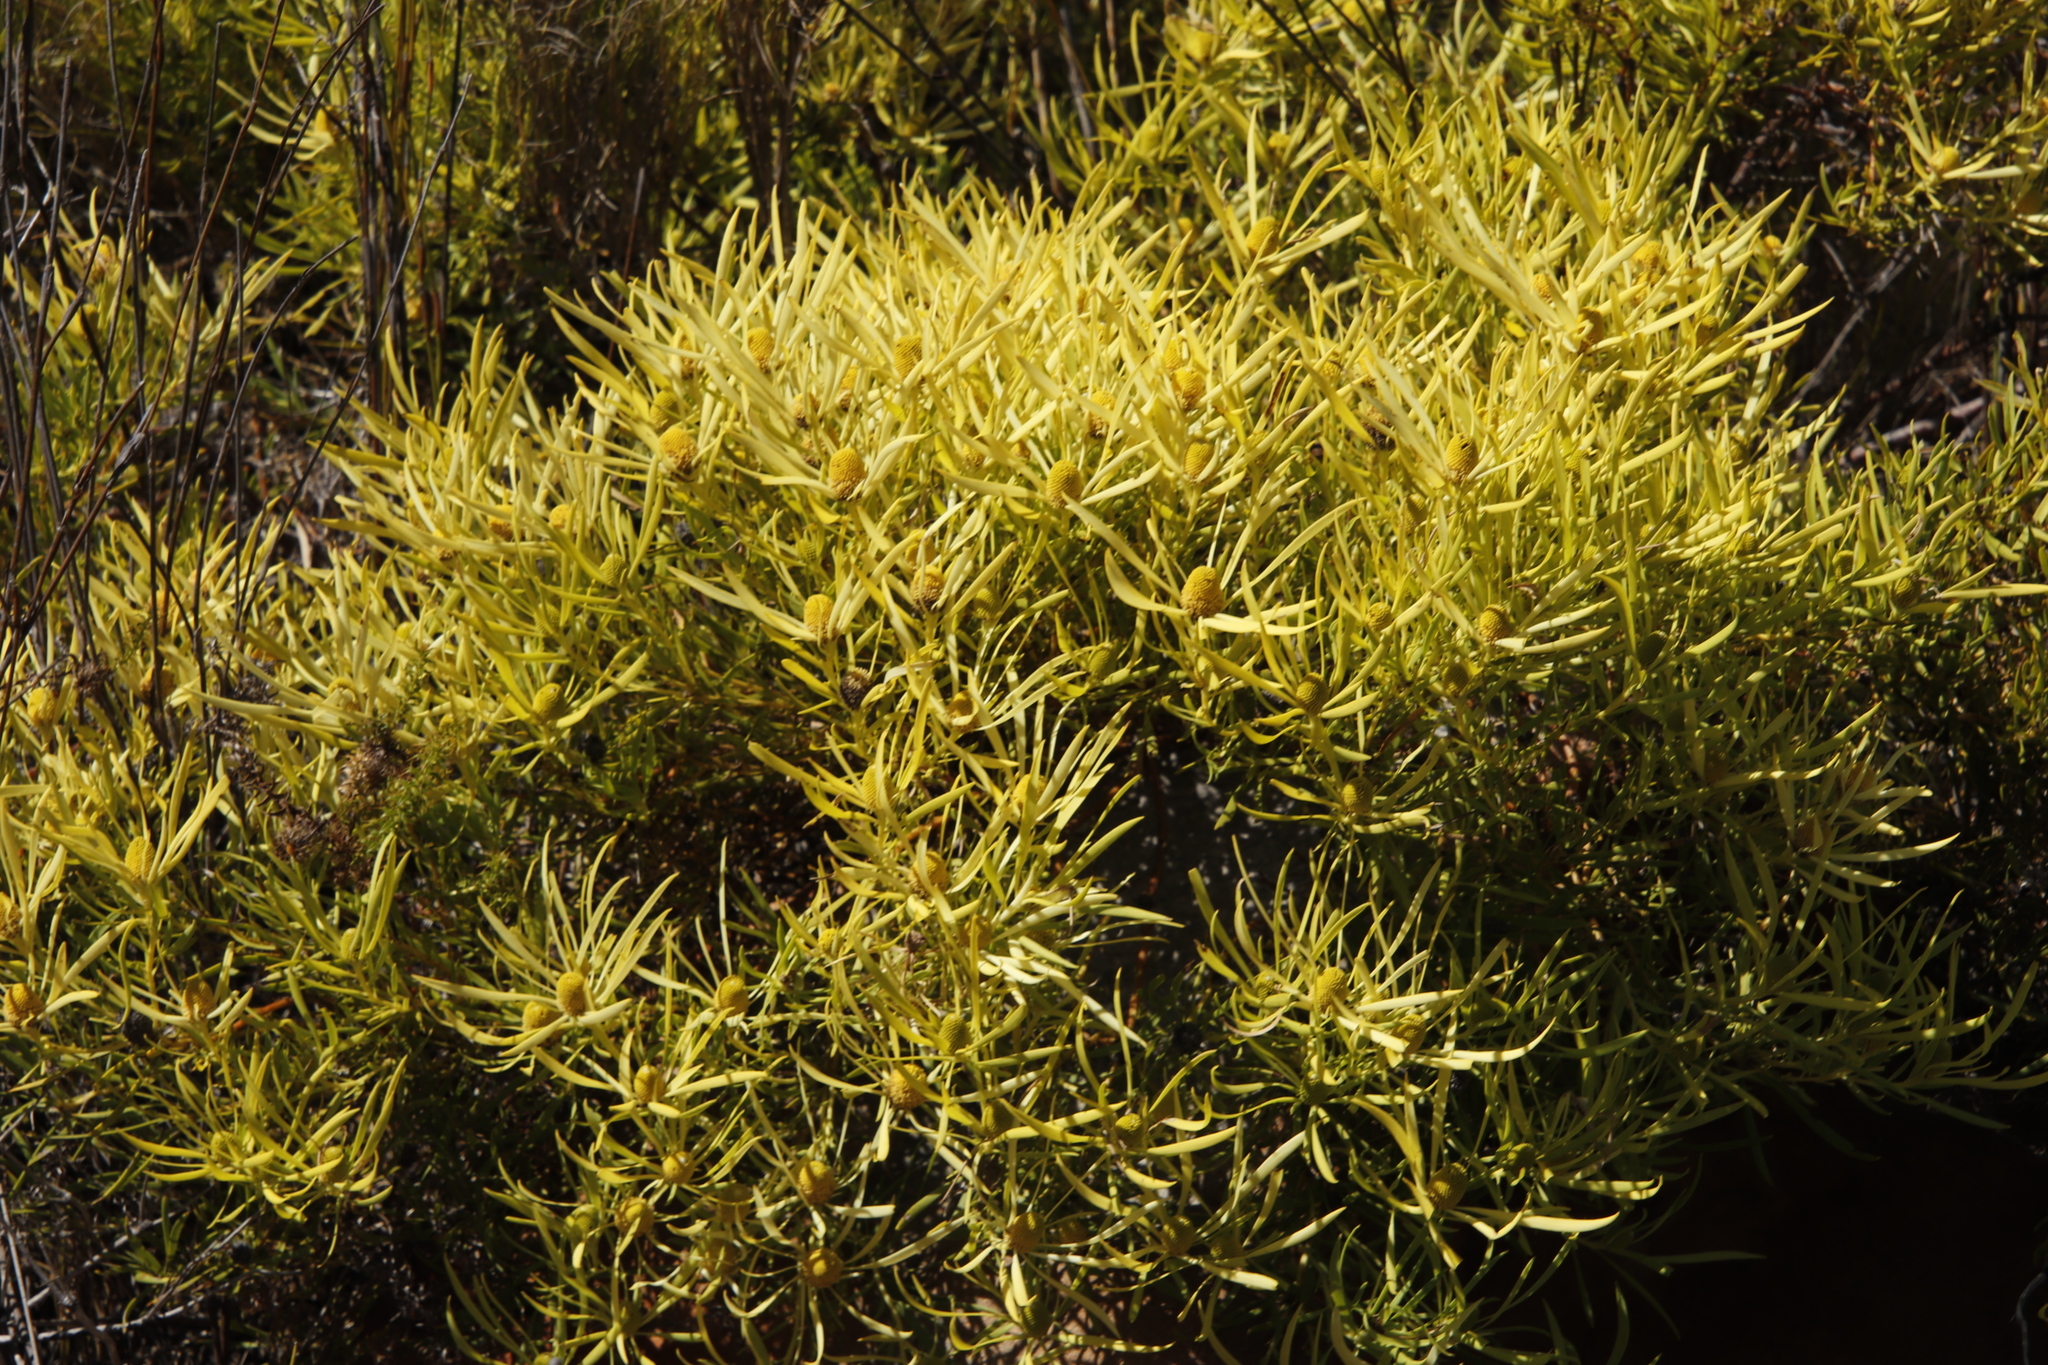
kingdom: Plantae
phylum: Tracheophyta
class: Magnoliopsida
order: Proteales
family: Proteaceae
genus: Leucadendron
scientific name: Leucadendron salignum
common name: Common sunshine conebush
